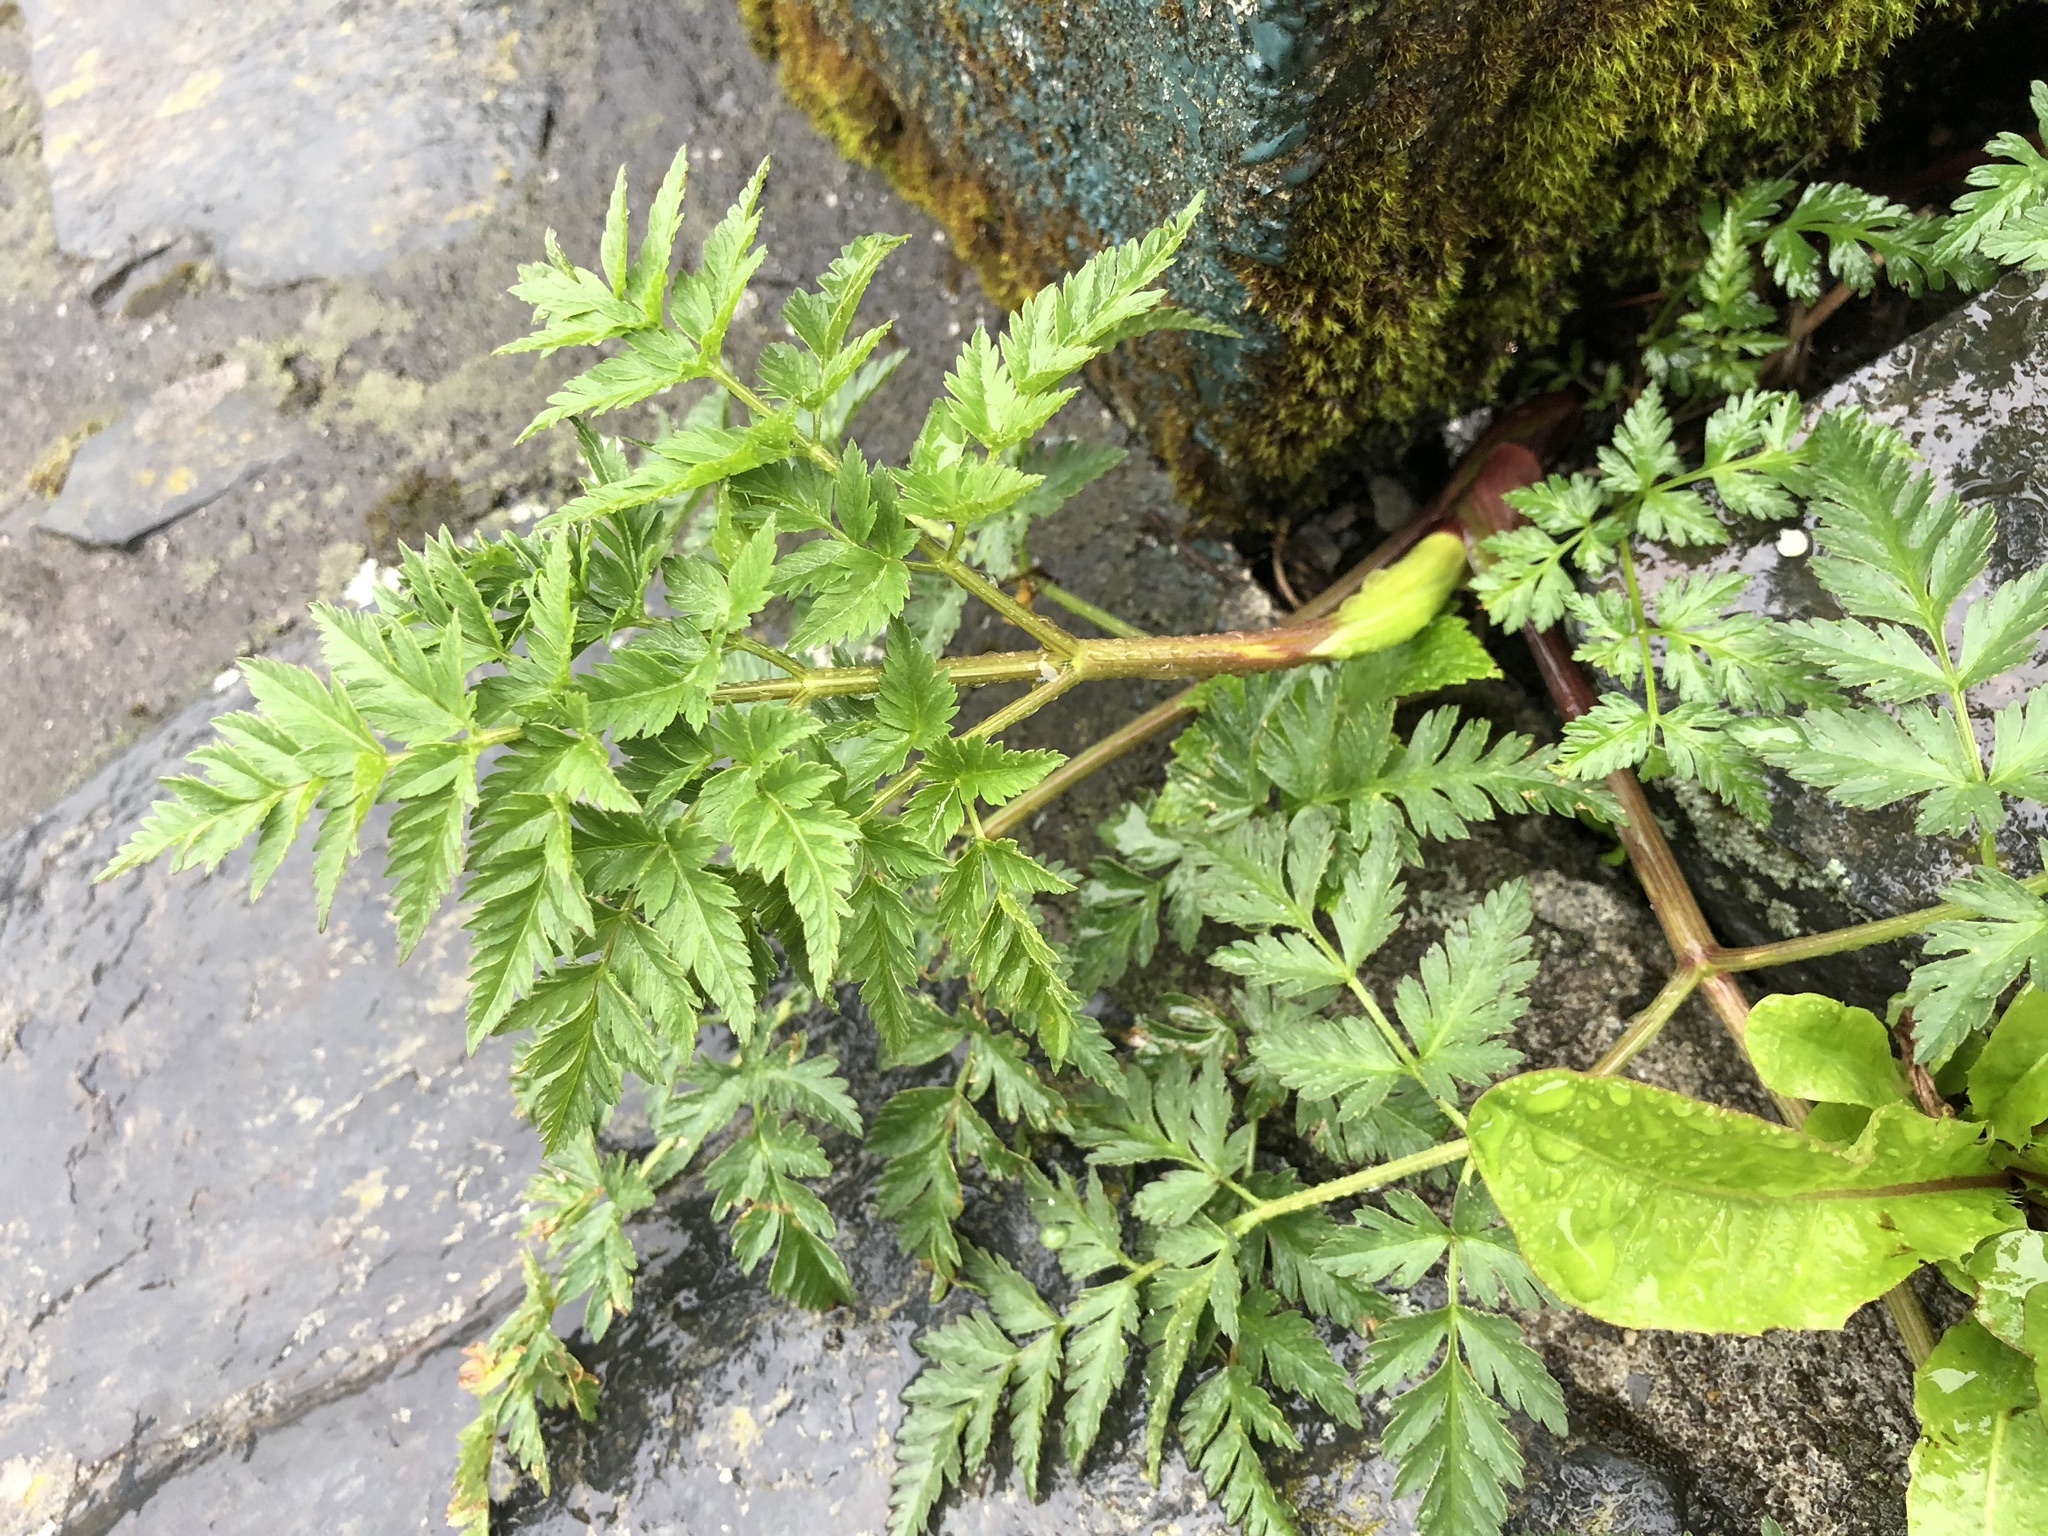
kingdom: Plantae
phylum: Tracheophyta
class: Magnoliopsida
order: Apiales
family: Apiaceae
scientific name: Apiaceae
